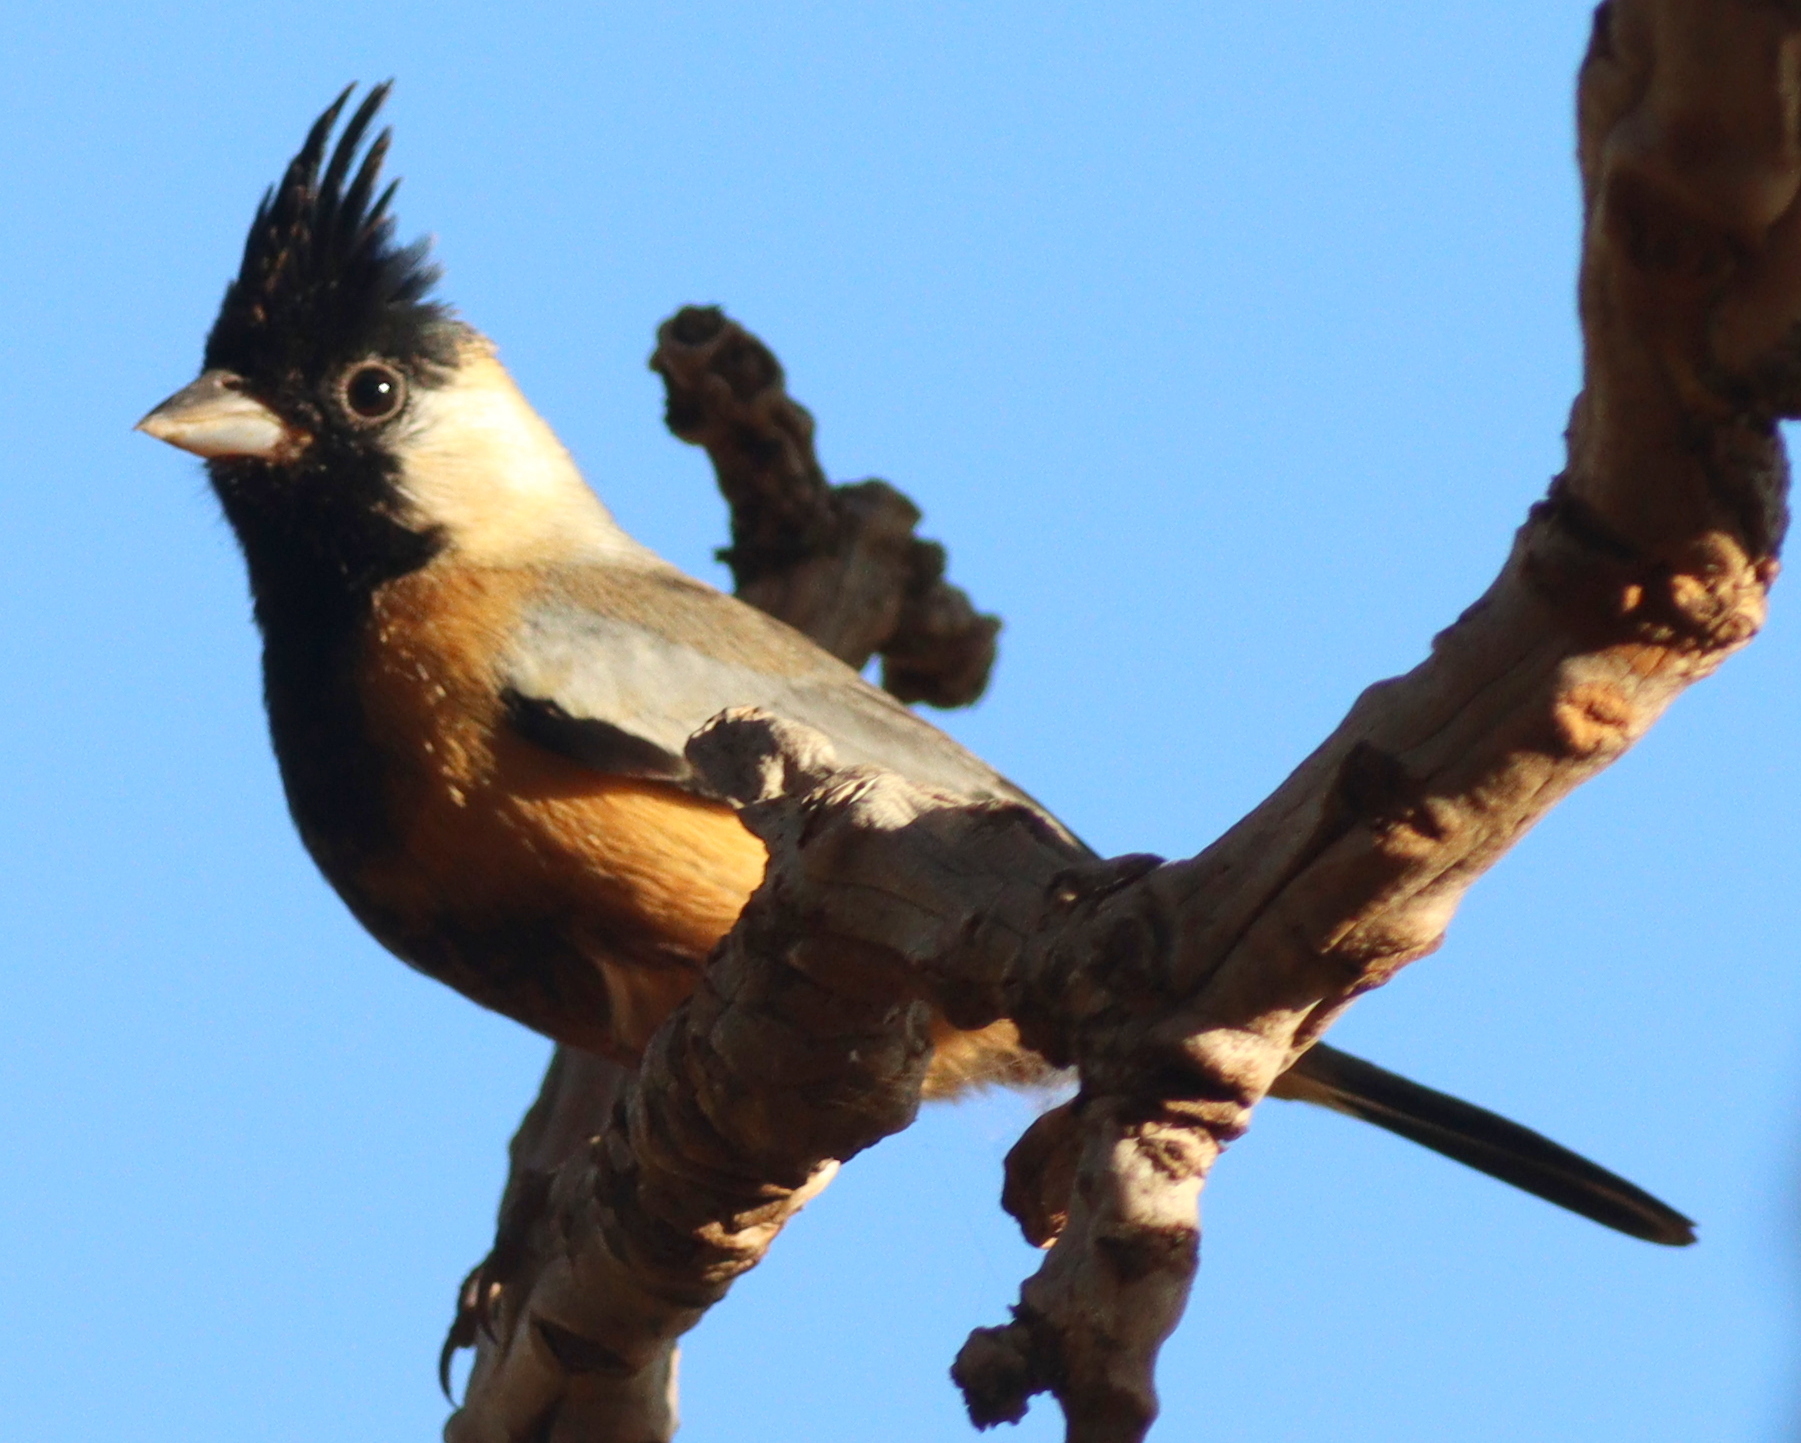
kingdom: Animalia
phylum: Chordata
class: Aves
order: Passeriformes
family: Thraupidae
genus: Charitospiza
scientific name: Charitospiza eucosma
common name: Coal-crested finch
